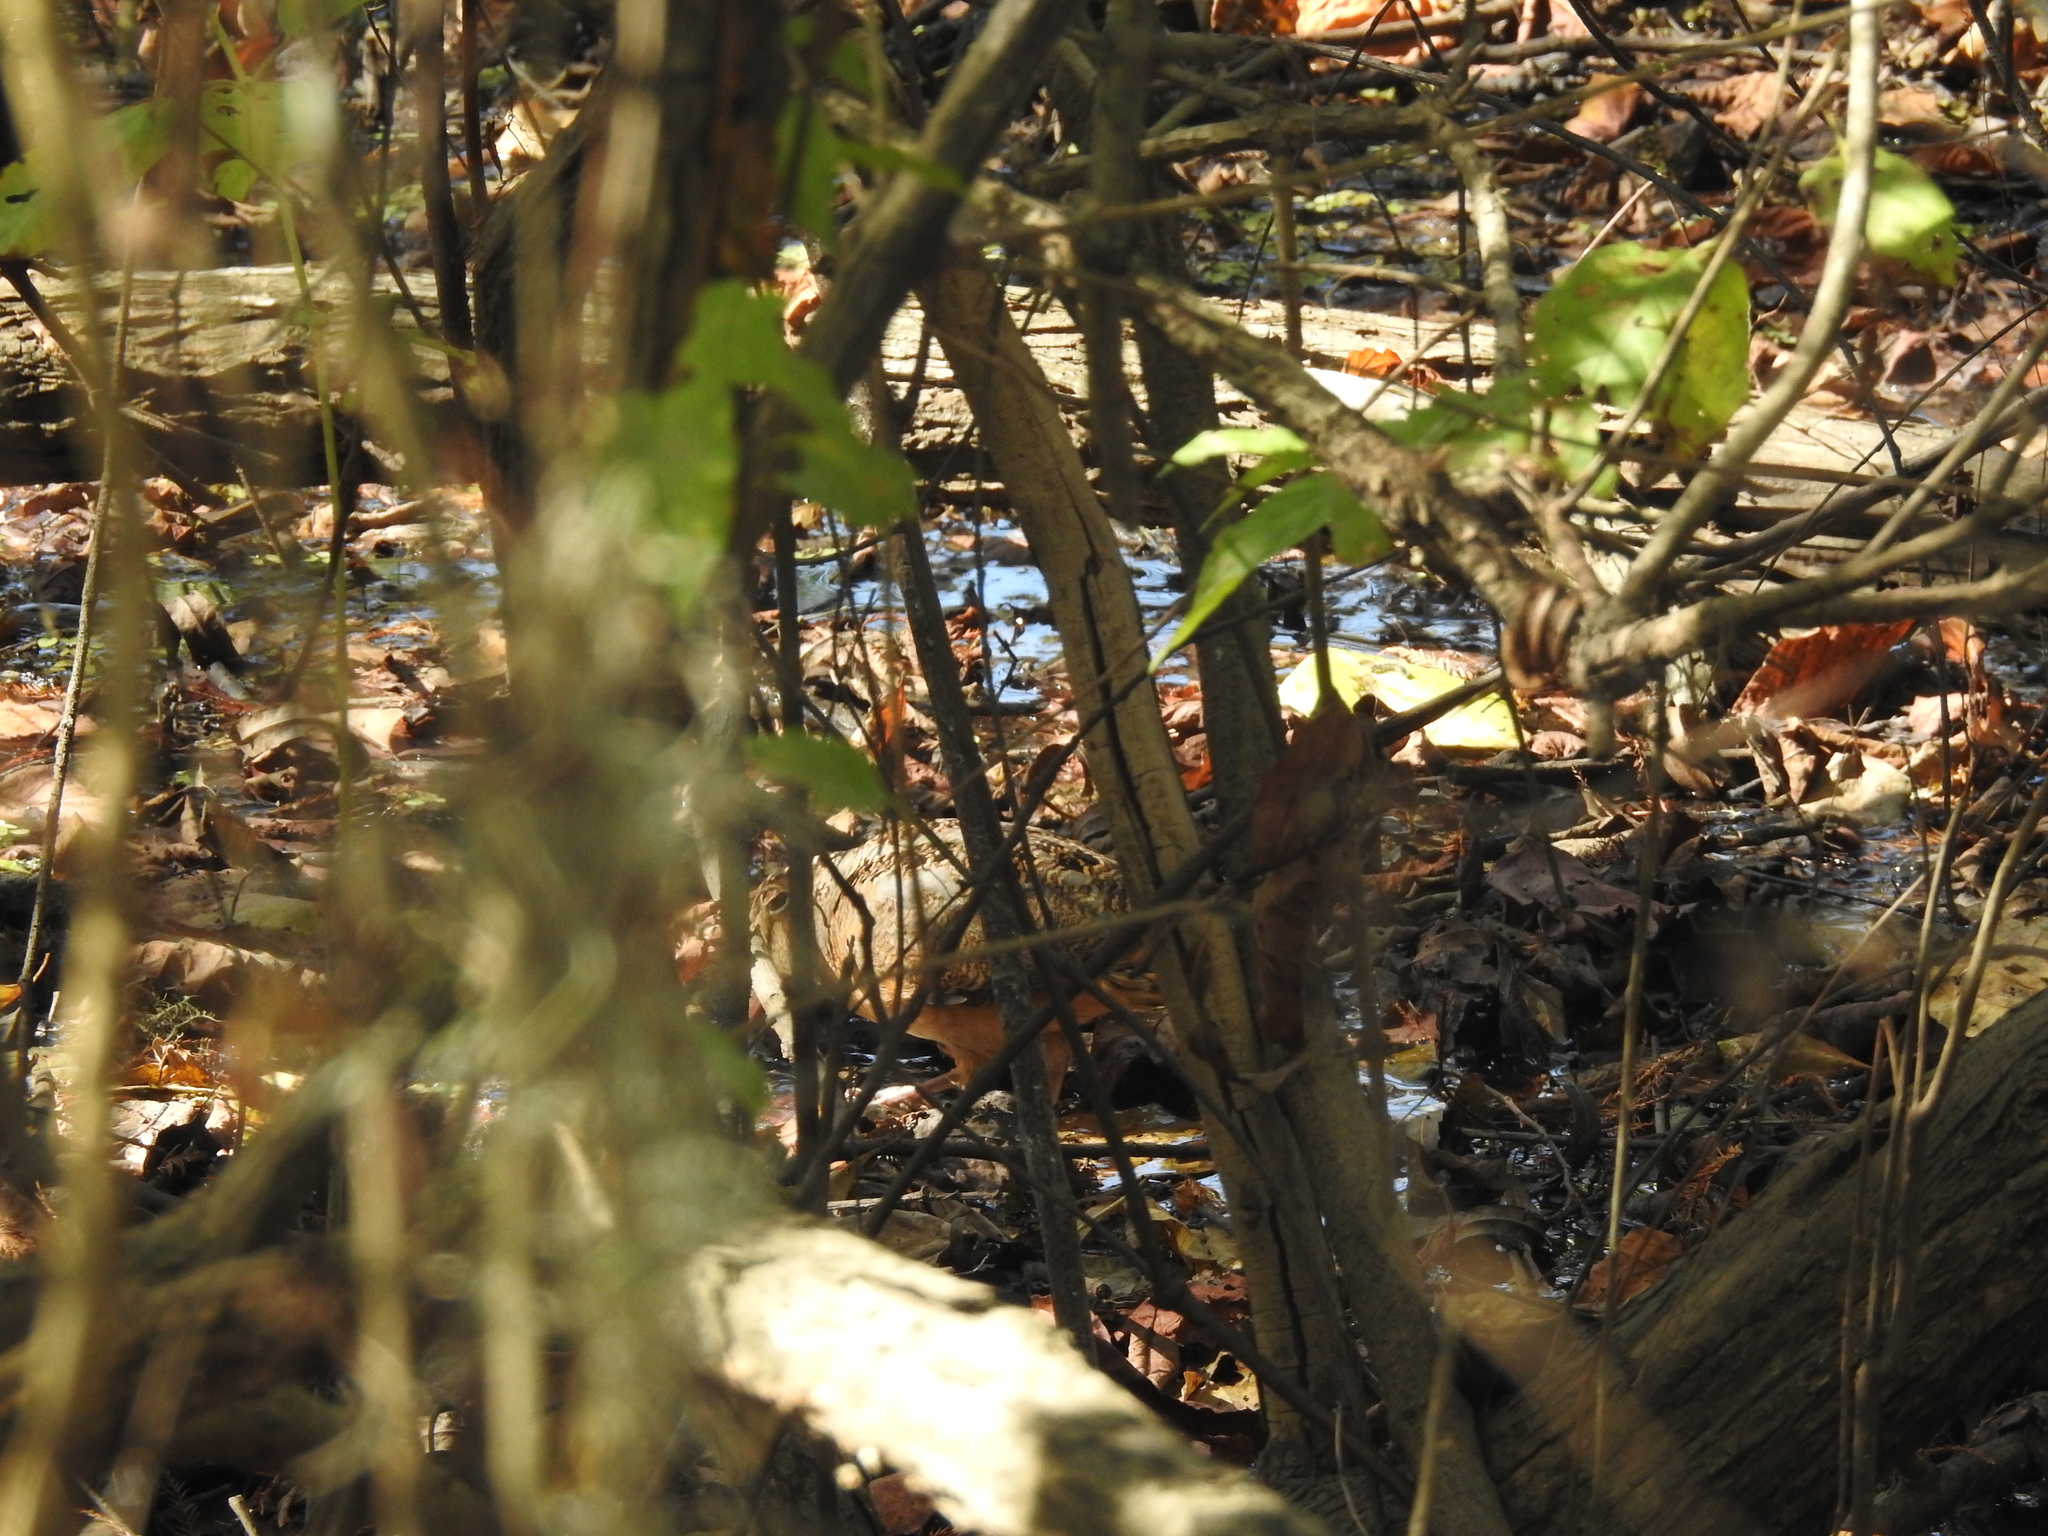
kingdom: Animalia
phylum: Chordata
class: Aves
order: Charadriiformes
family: Scolopacidae
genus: Scolopax
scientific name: Scolopax minor
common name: American woodcock
